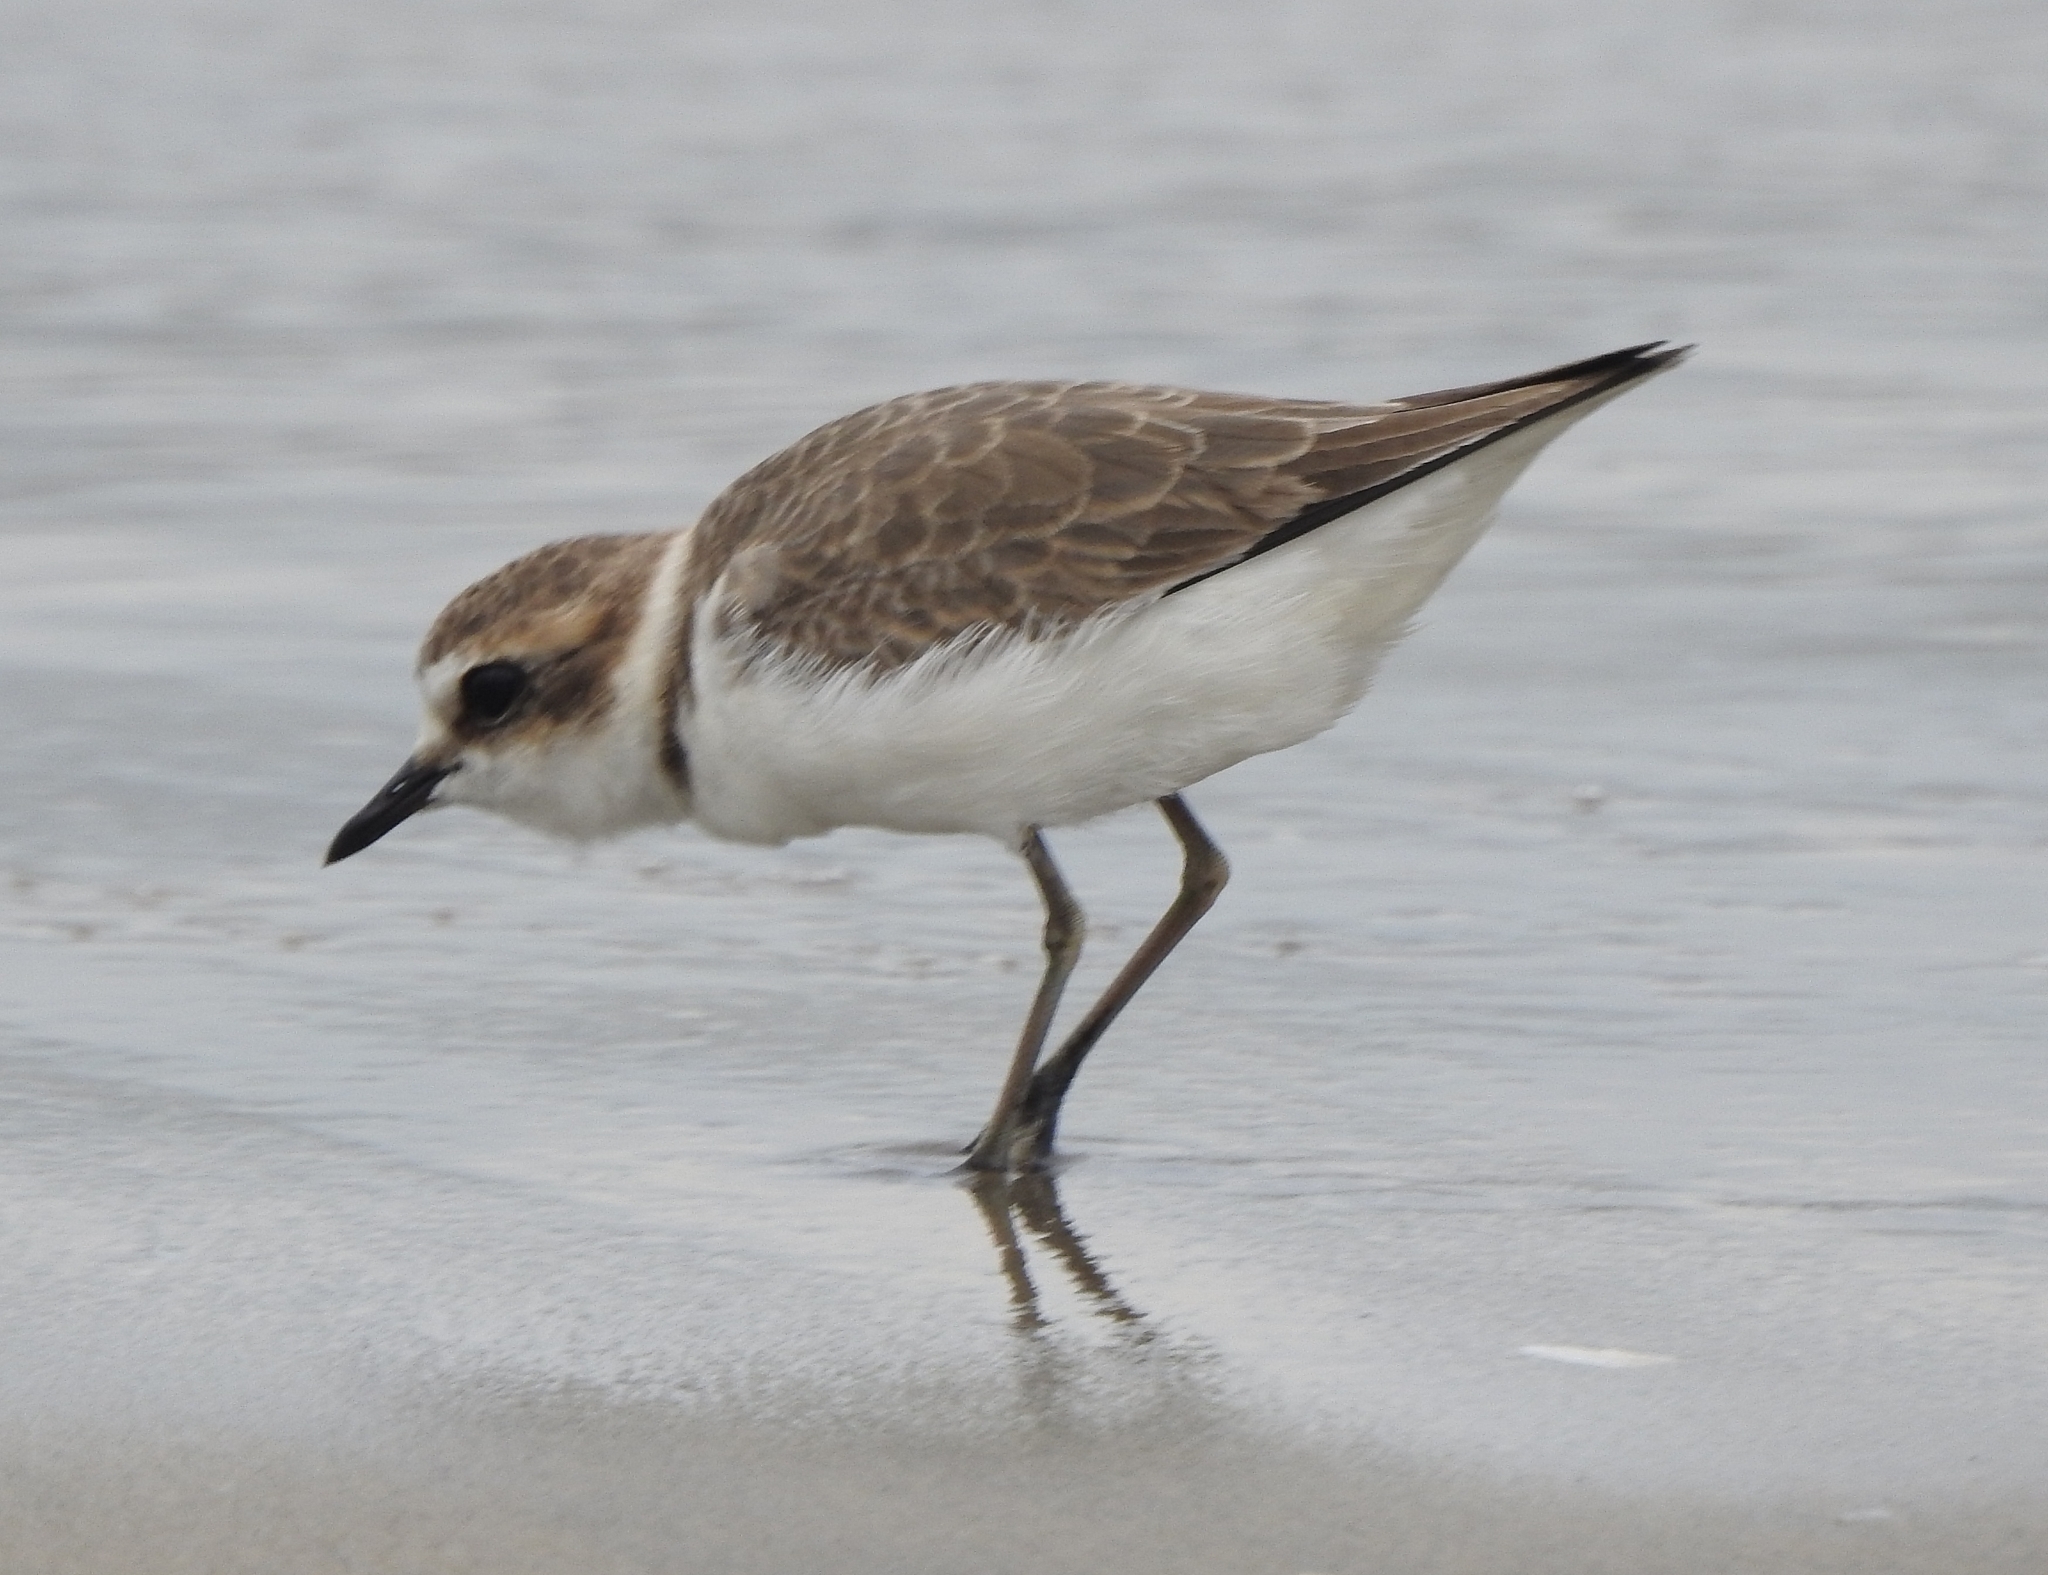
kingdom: Animalia
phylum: Chordata
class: Aves
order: Charadriiformes
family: Charadriidae
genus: Charadrius
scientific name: Charadrius alexandrinus
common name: Kentish plover
